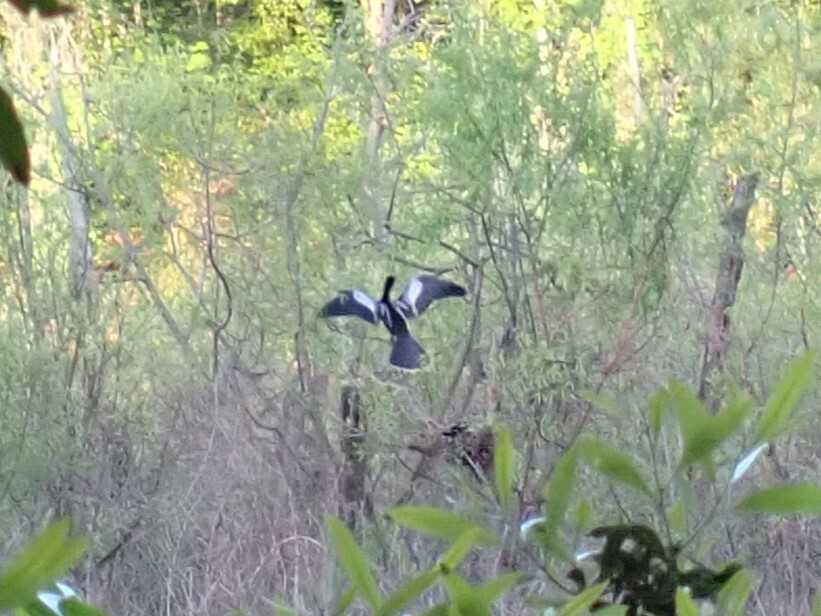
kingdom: Animalia
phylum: Chordata
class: Aves
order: Suliformes
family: Anhingidae
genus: Anhinga
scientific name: Anhinga anhinga
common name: Anhinga
